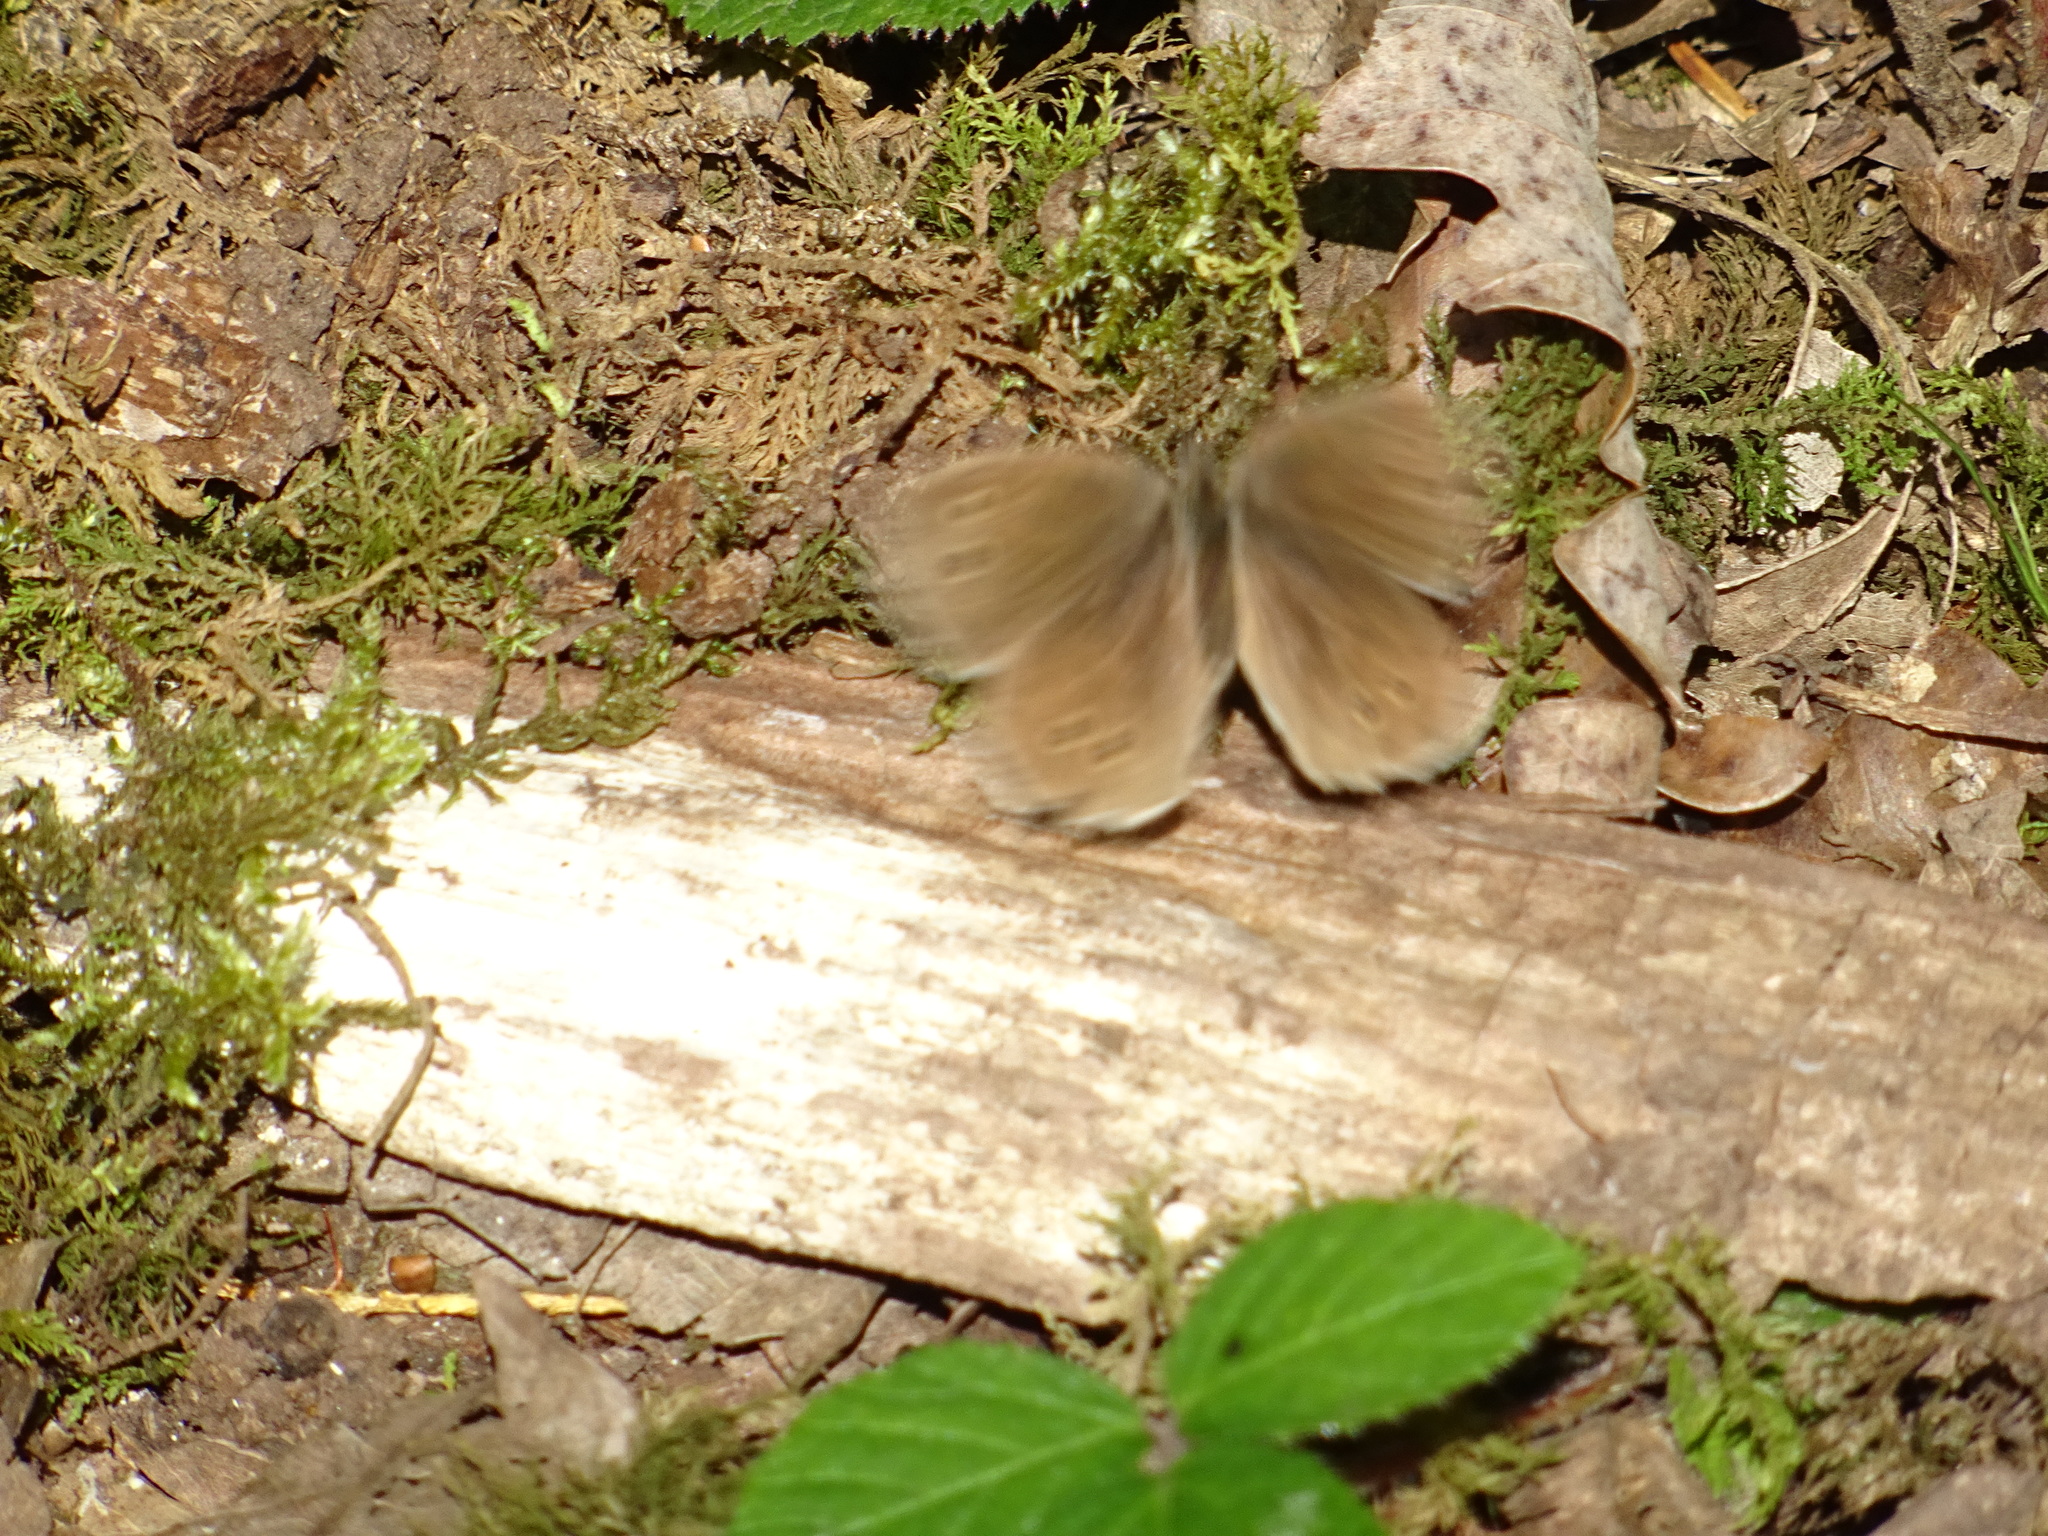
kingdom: Animalia
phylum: Arthropoda
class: Insecta
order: Lepidoptera
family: Nymphalidae
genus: Aphantopus
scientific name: Aphantopus hyperantus
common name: Ringlet
